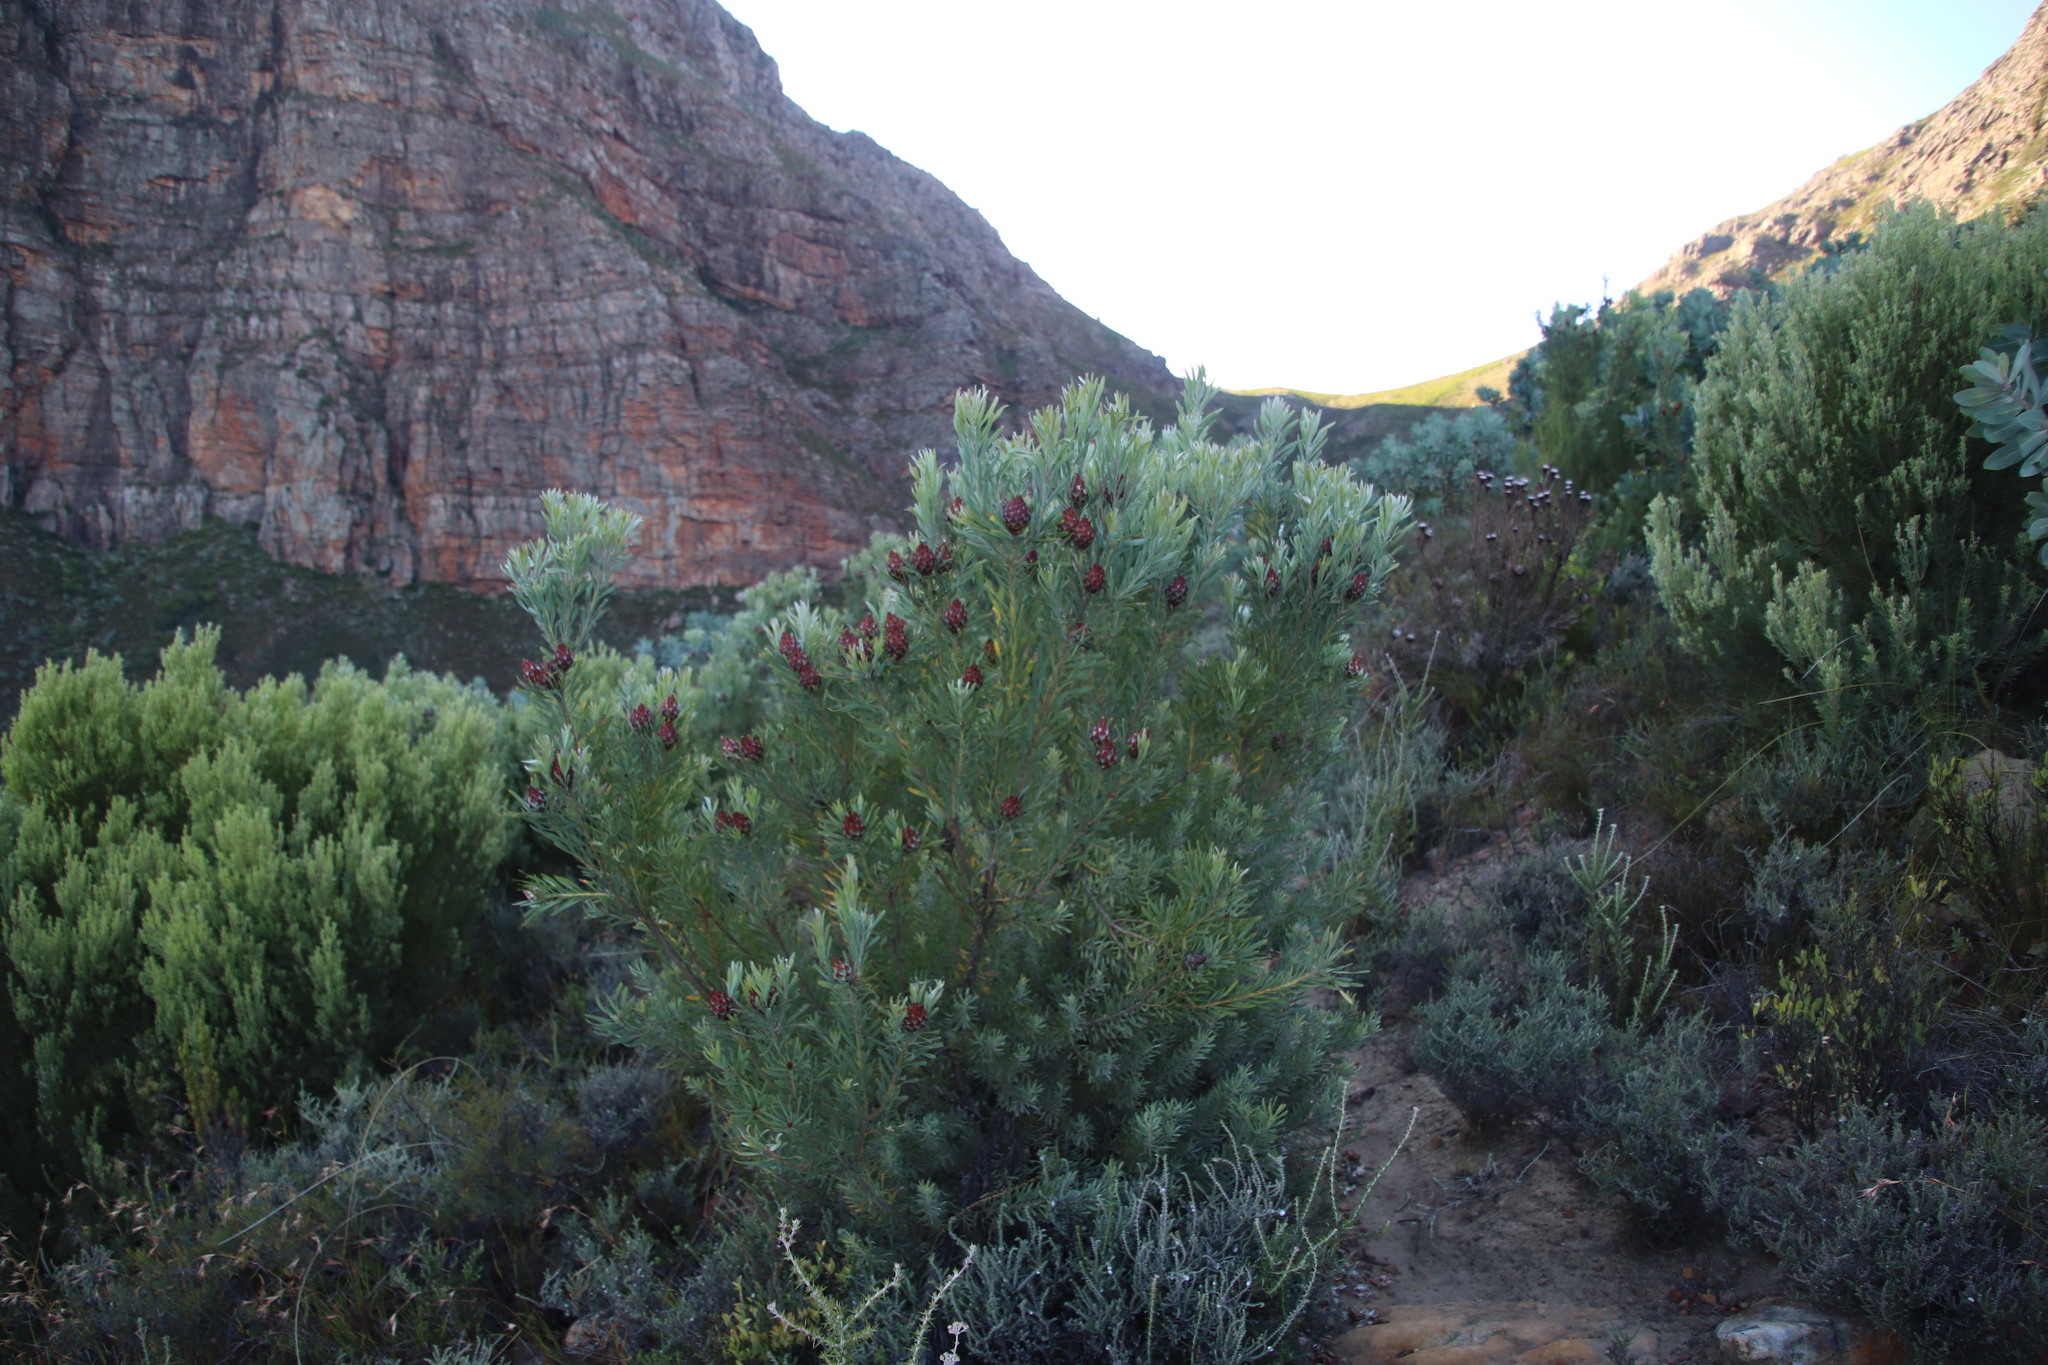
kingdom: Plantae
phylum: Tracheophyta
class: Magnoliopsida
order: Proteales
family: Proteaceae
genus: Leucadendron
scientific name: Leucadendron rubrum
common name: Spinning top
